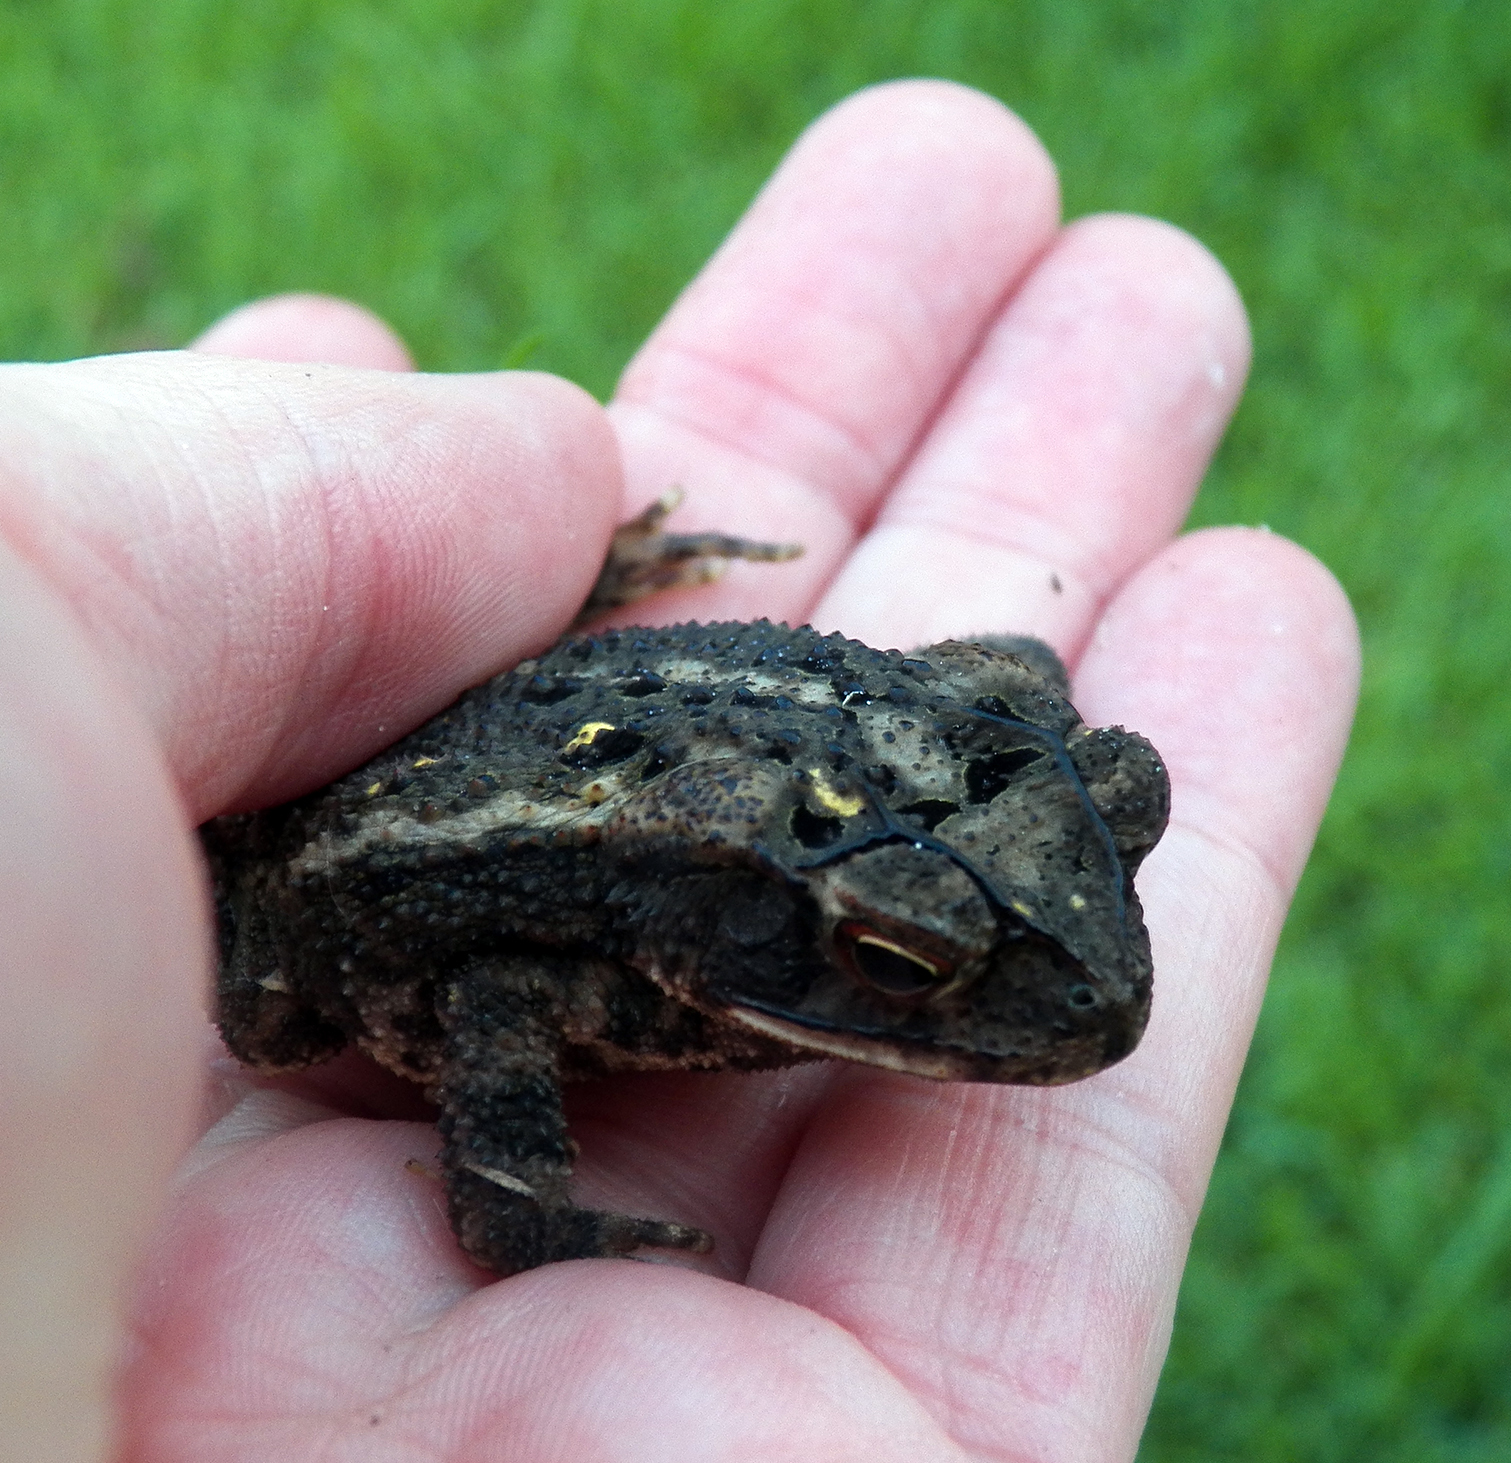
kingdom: Animalia
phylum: Chordata
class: Amphibia
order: Anura
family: Bufonidae
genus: Incilius
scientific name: Incilius nebulifer
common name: Gulf coast toad
